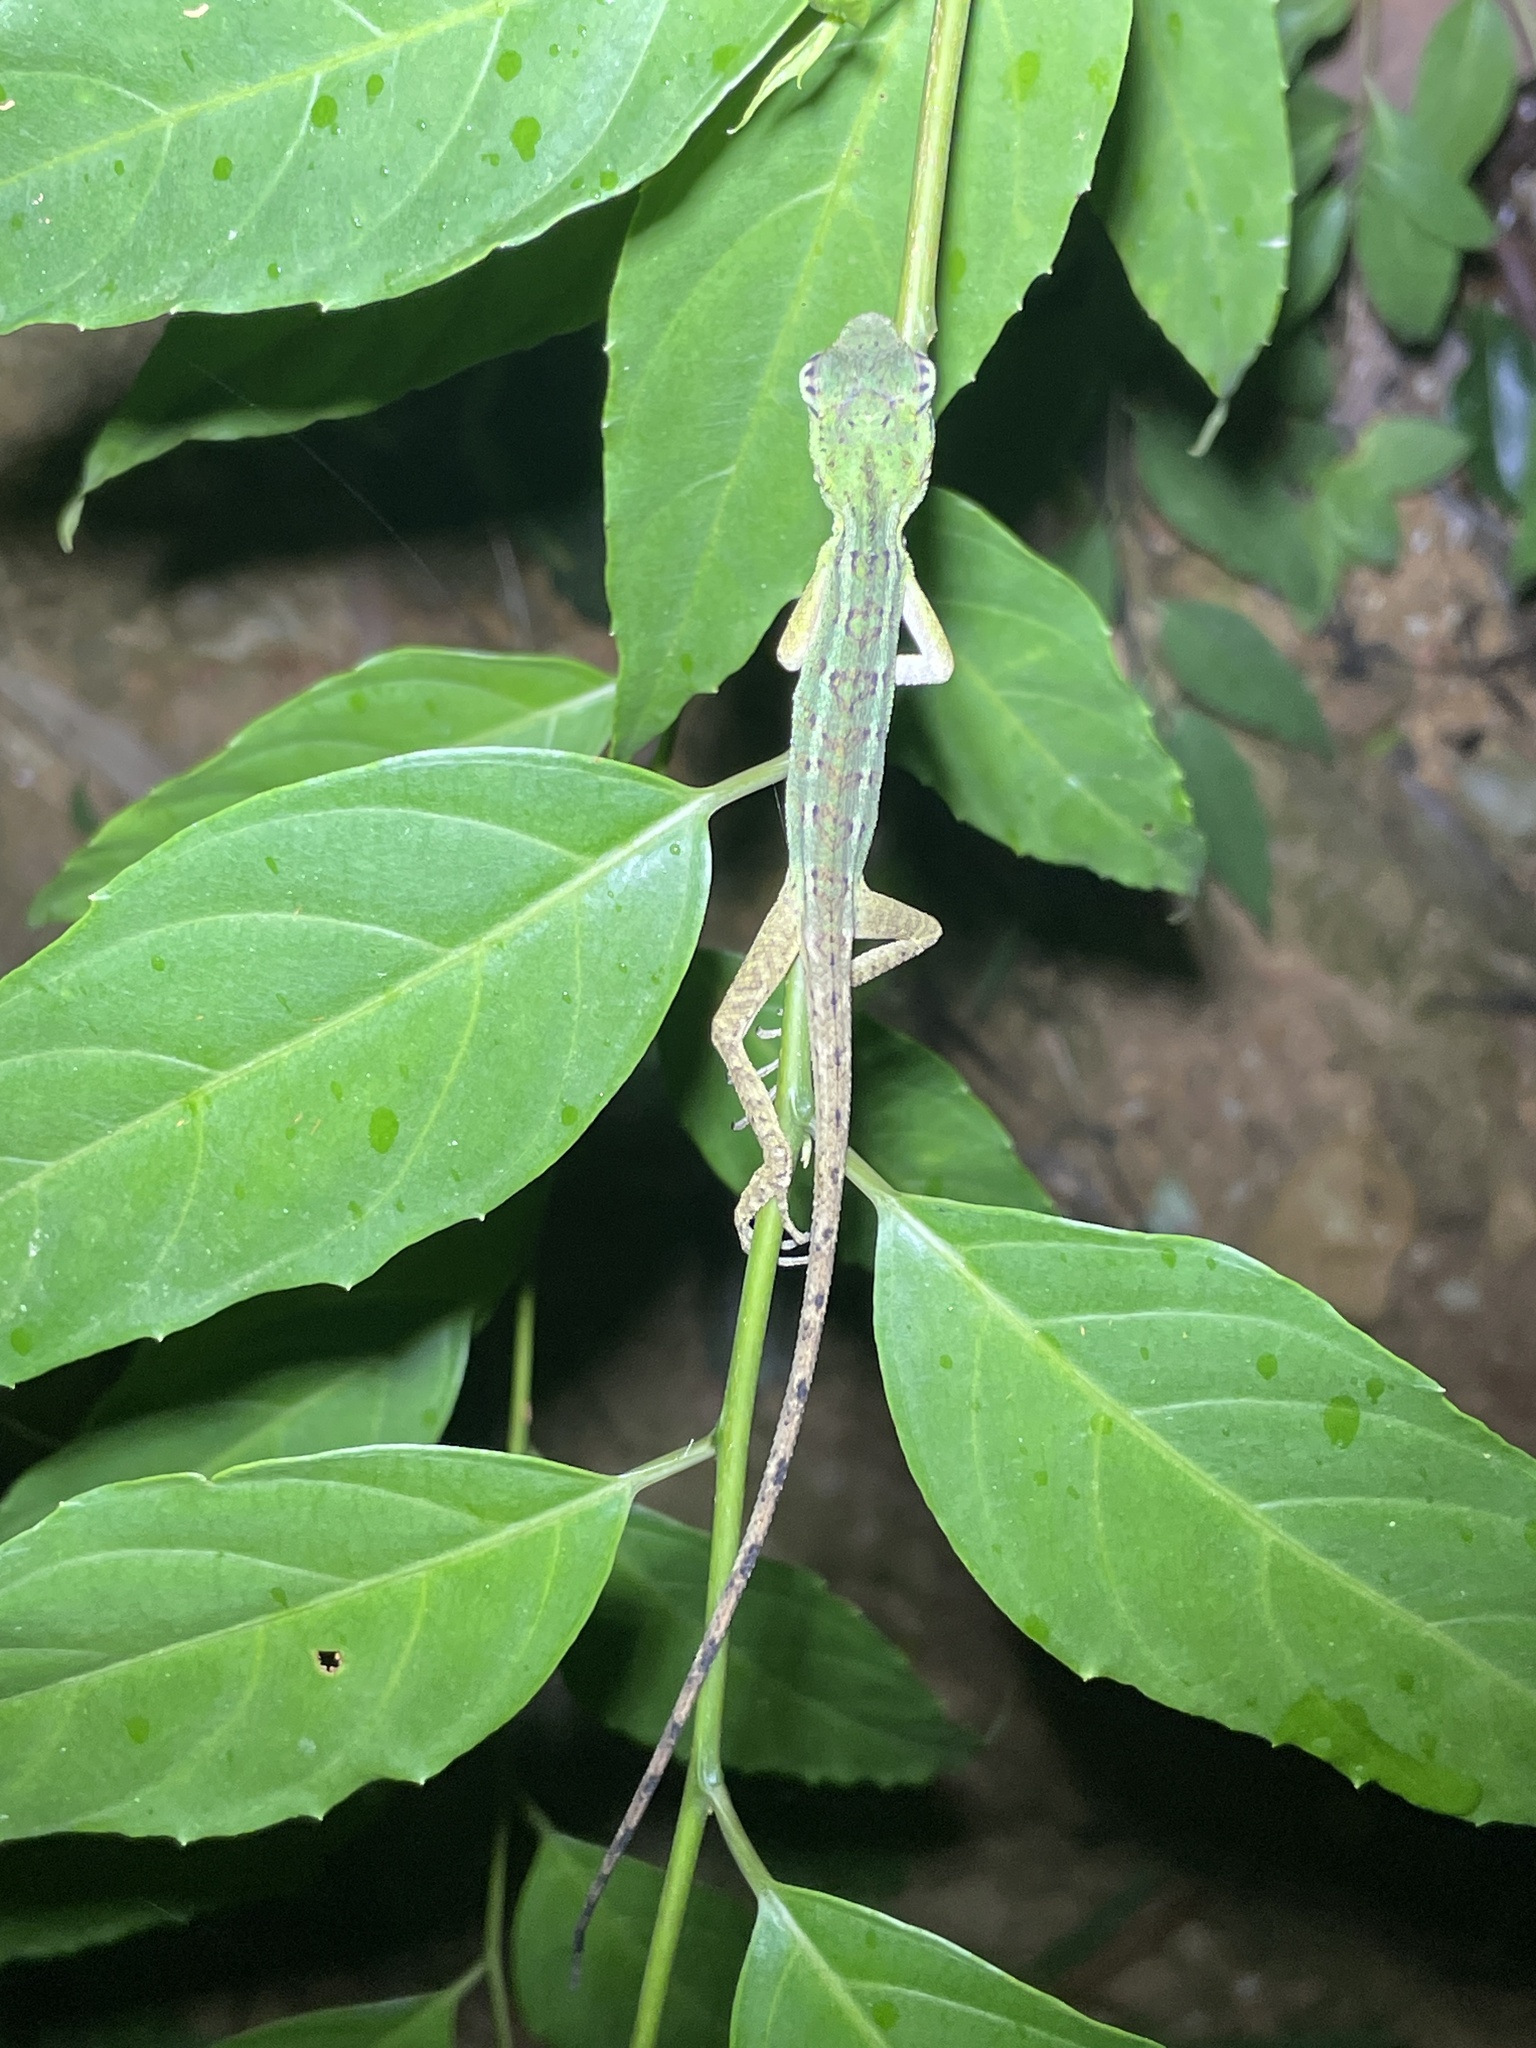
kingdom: Animalia
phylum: Chordata
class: Squamata
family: Agamidae
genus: Calotes
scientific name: Calotes emma
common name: Thailand bloodsucker
